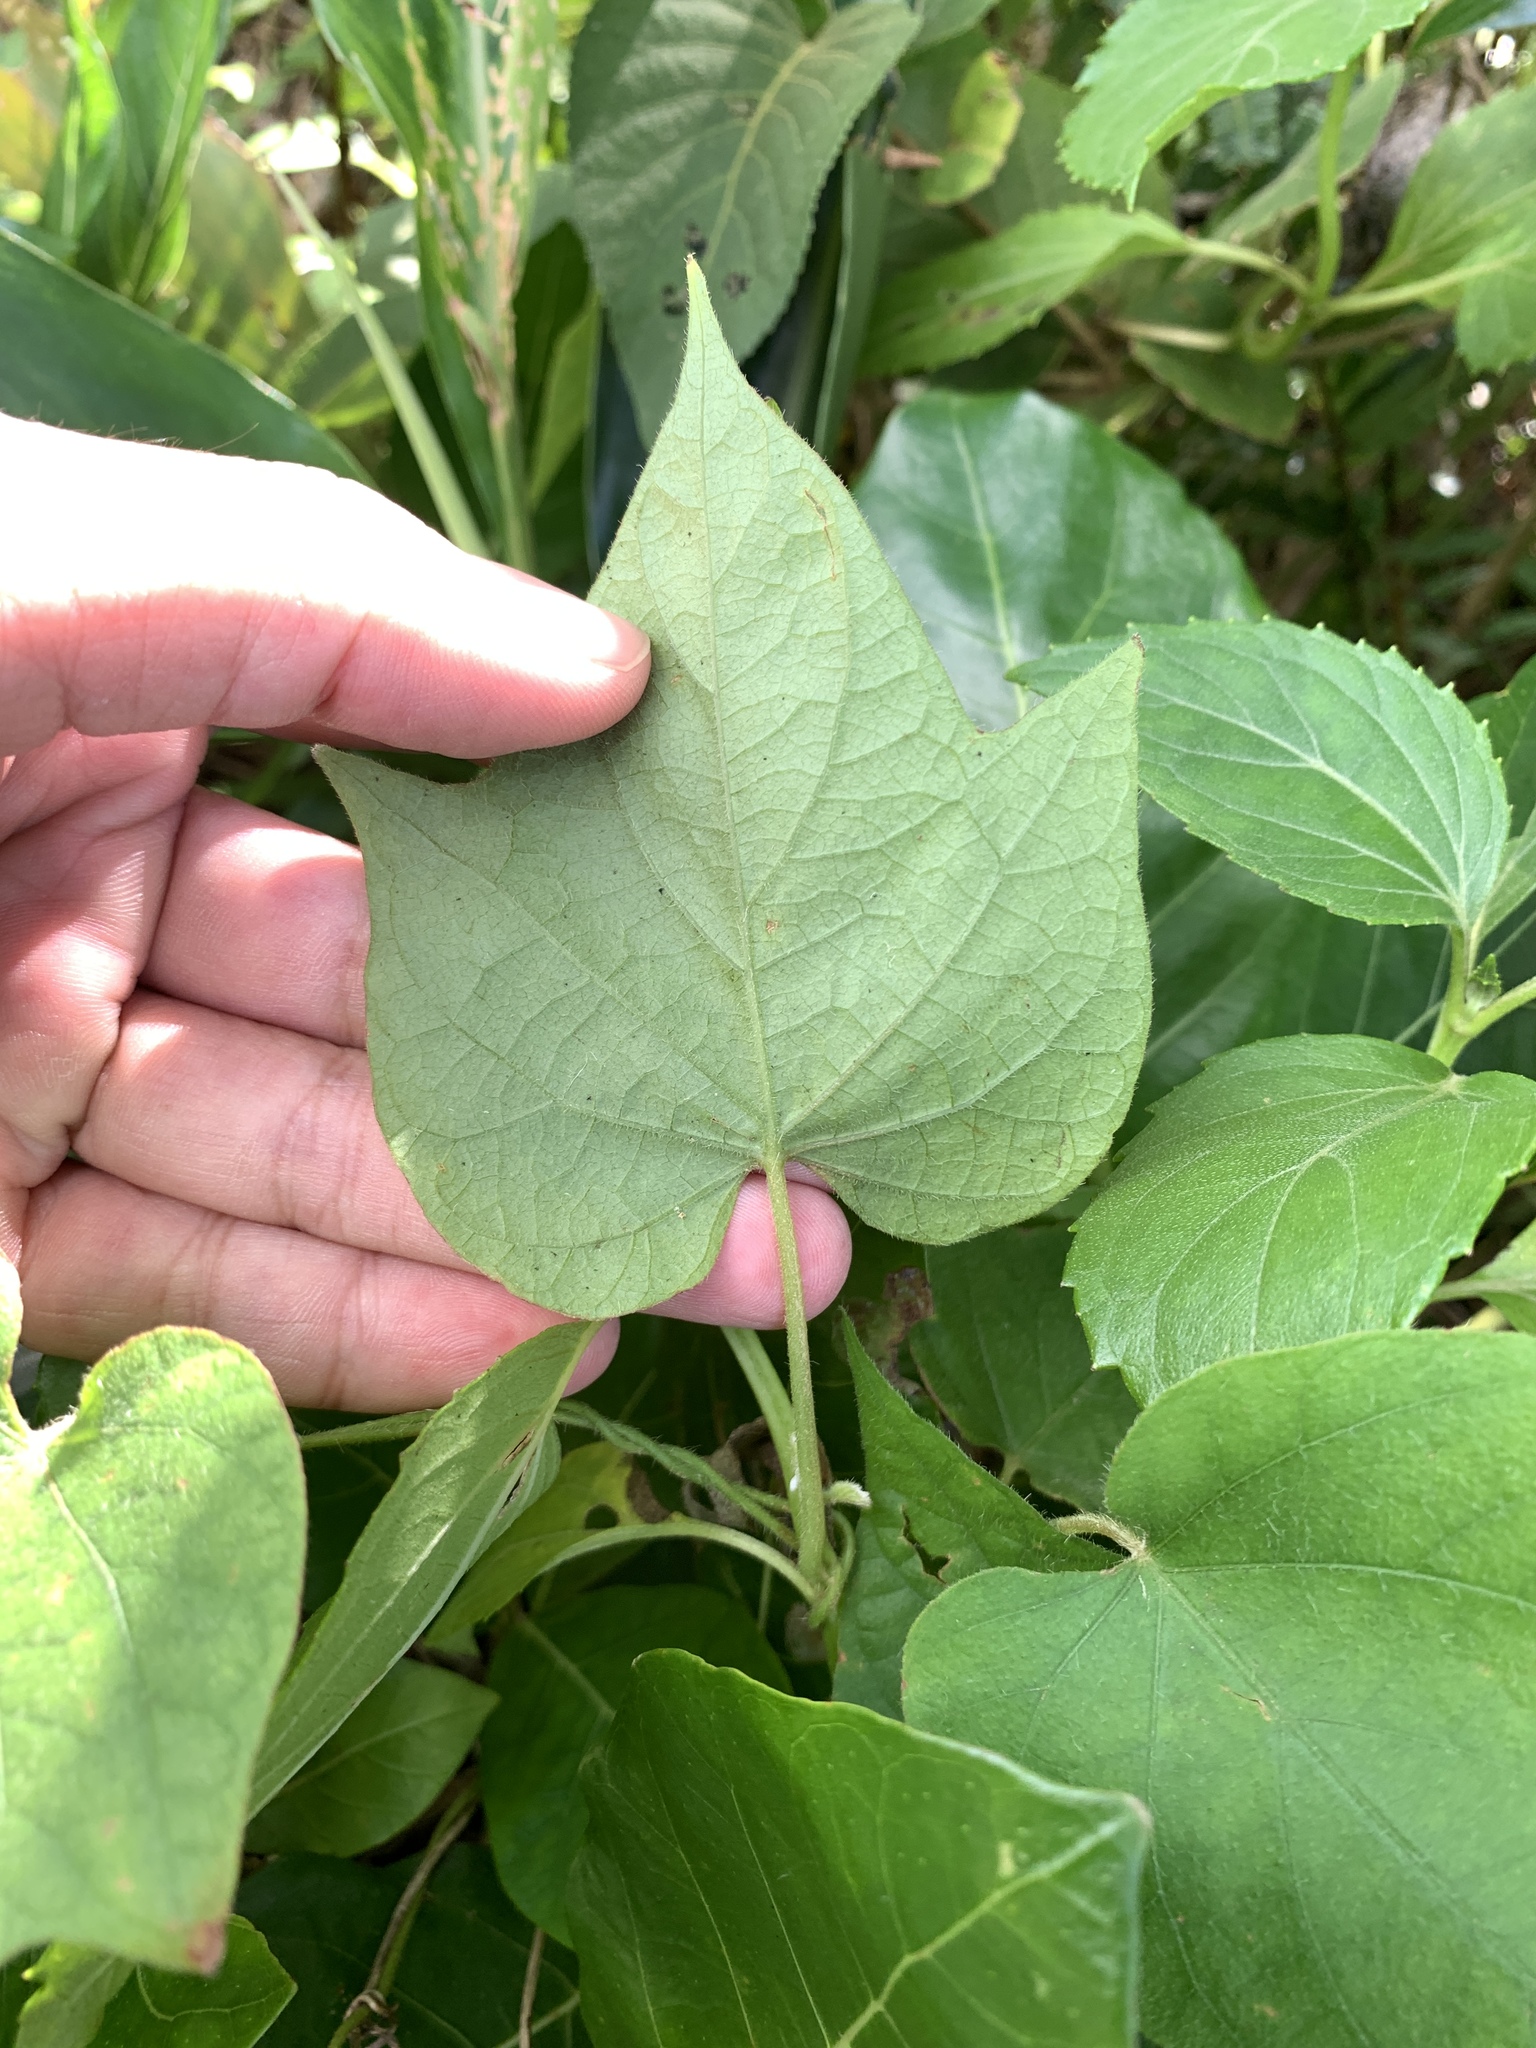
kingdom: Plantae
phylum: Tracheophyta
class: Magnoliopsida
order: Solanales
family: Convolvulaceae
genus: Ipomoea
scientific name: Ipomoea indica
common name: Blue dawnflower
